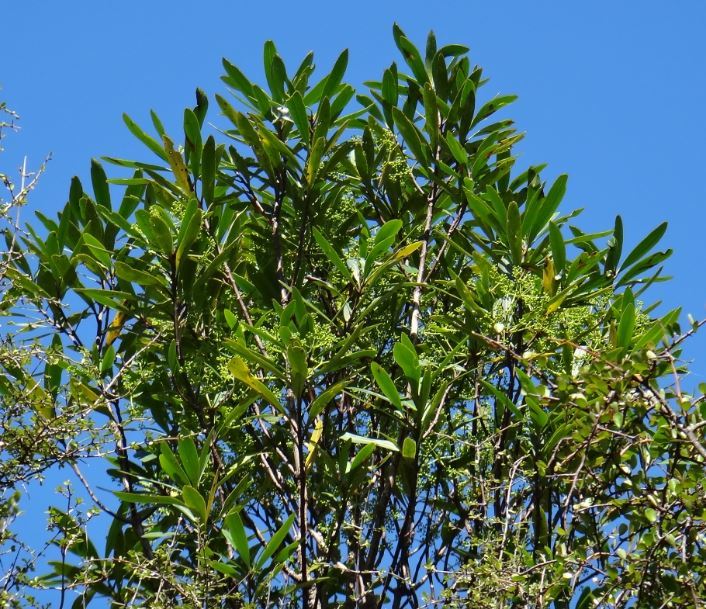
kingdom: Plantae
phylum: Tracheophyta
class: Magnoliopsida
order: Apiales
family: Araliaceae
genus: Pseudopanax
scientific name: Pseudopanax crassifolius
